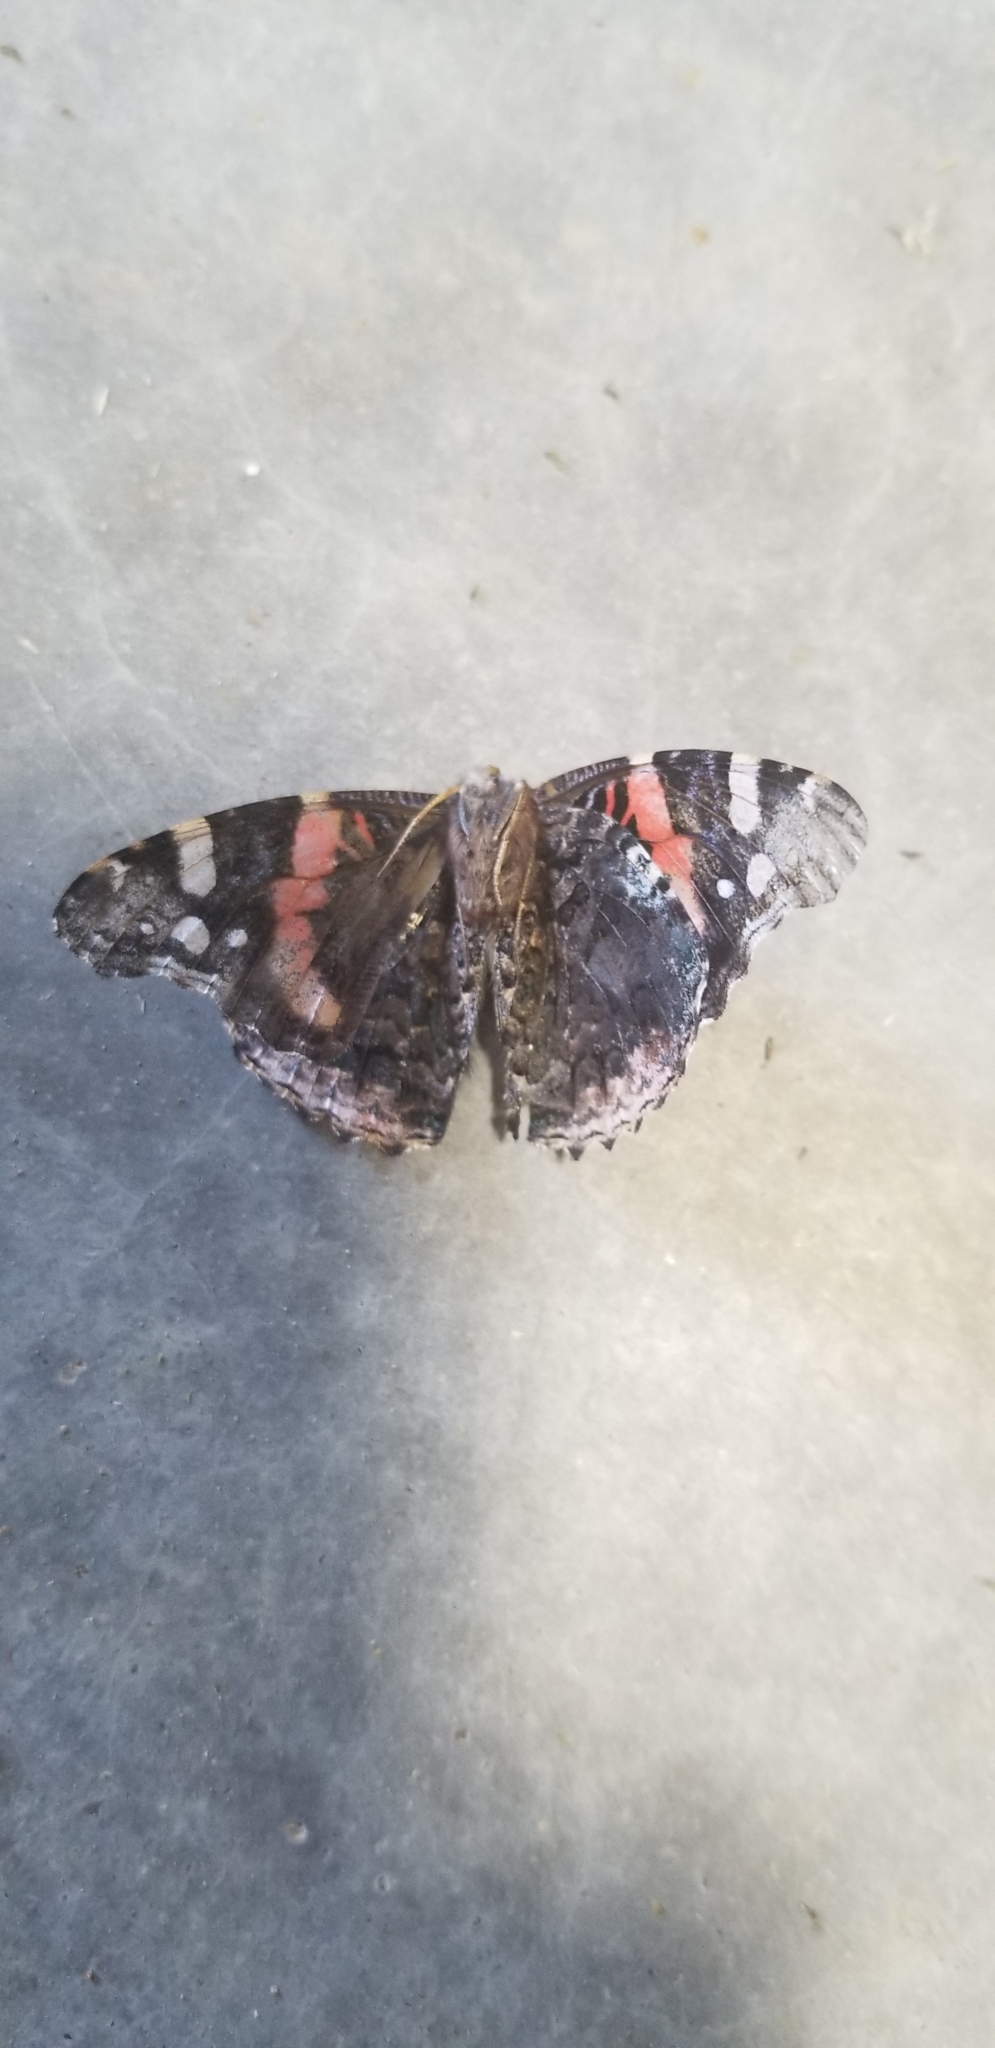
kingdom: Animalia
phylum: Arthropoda
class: Insecta
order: Lepidoptera
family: Nymphalidae
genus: Vanessa
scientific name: Vanessa atalanta
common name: Red admiral
